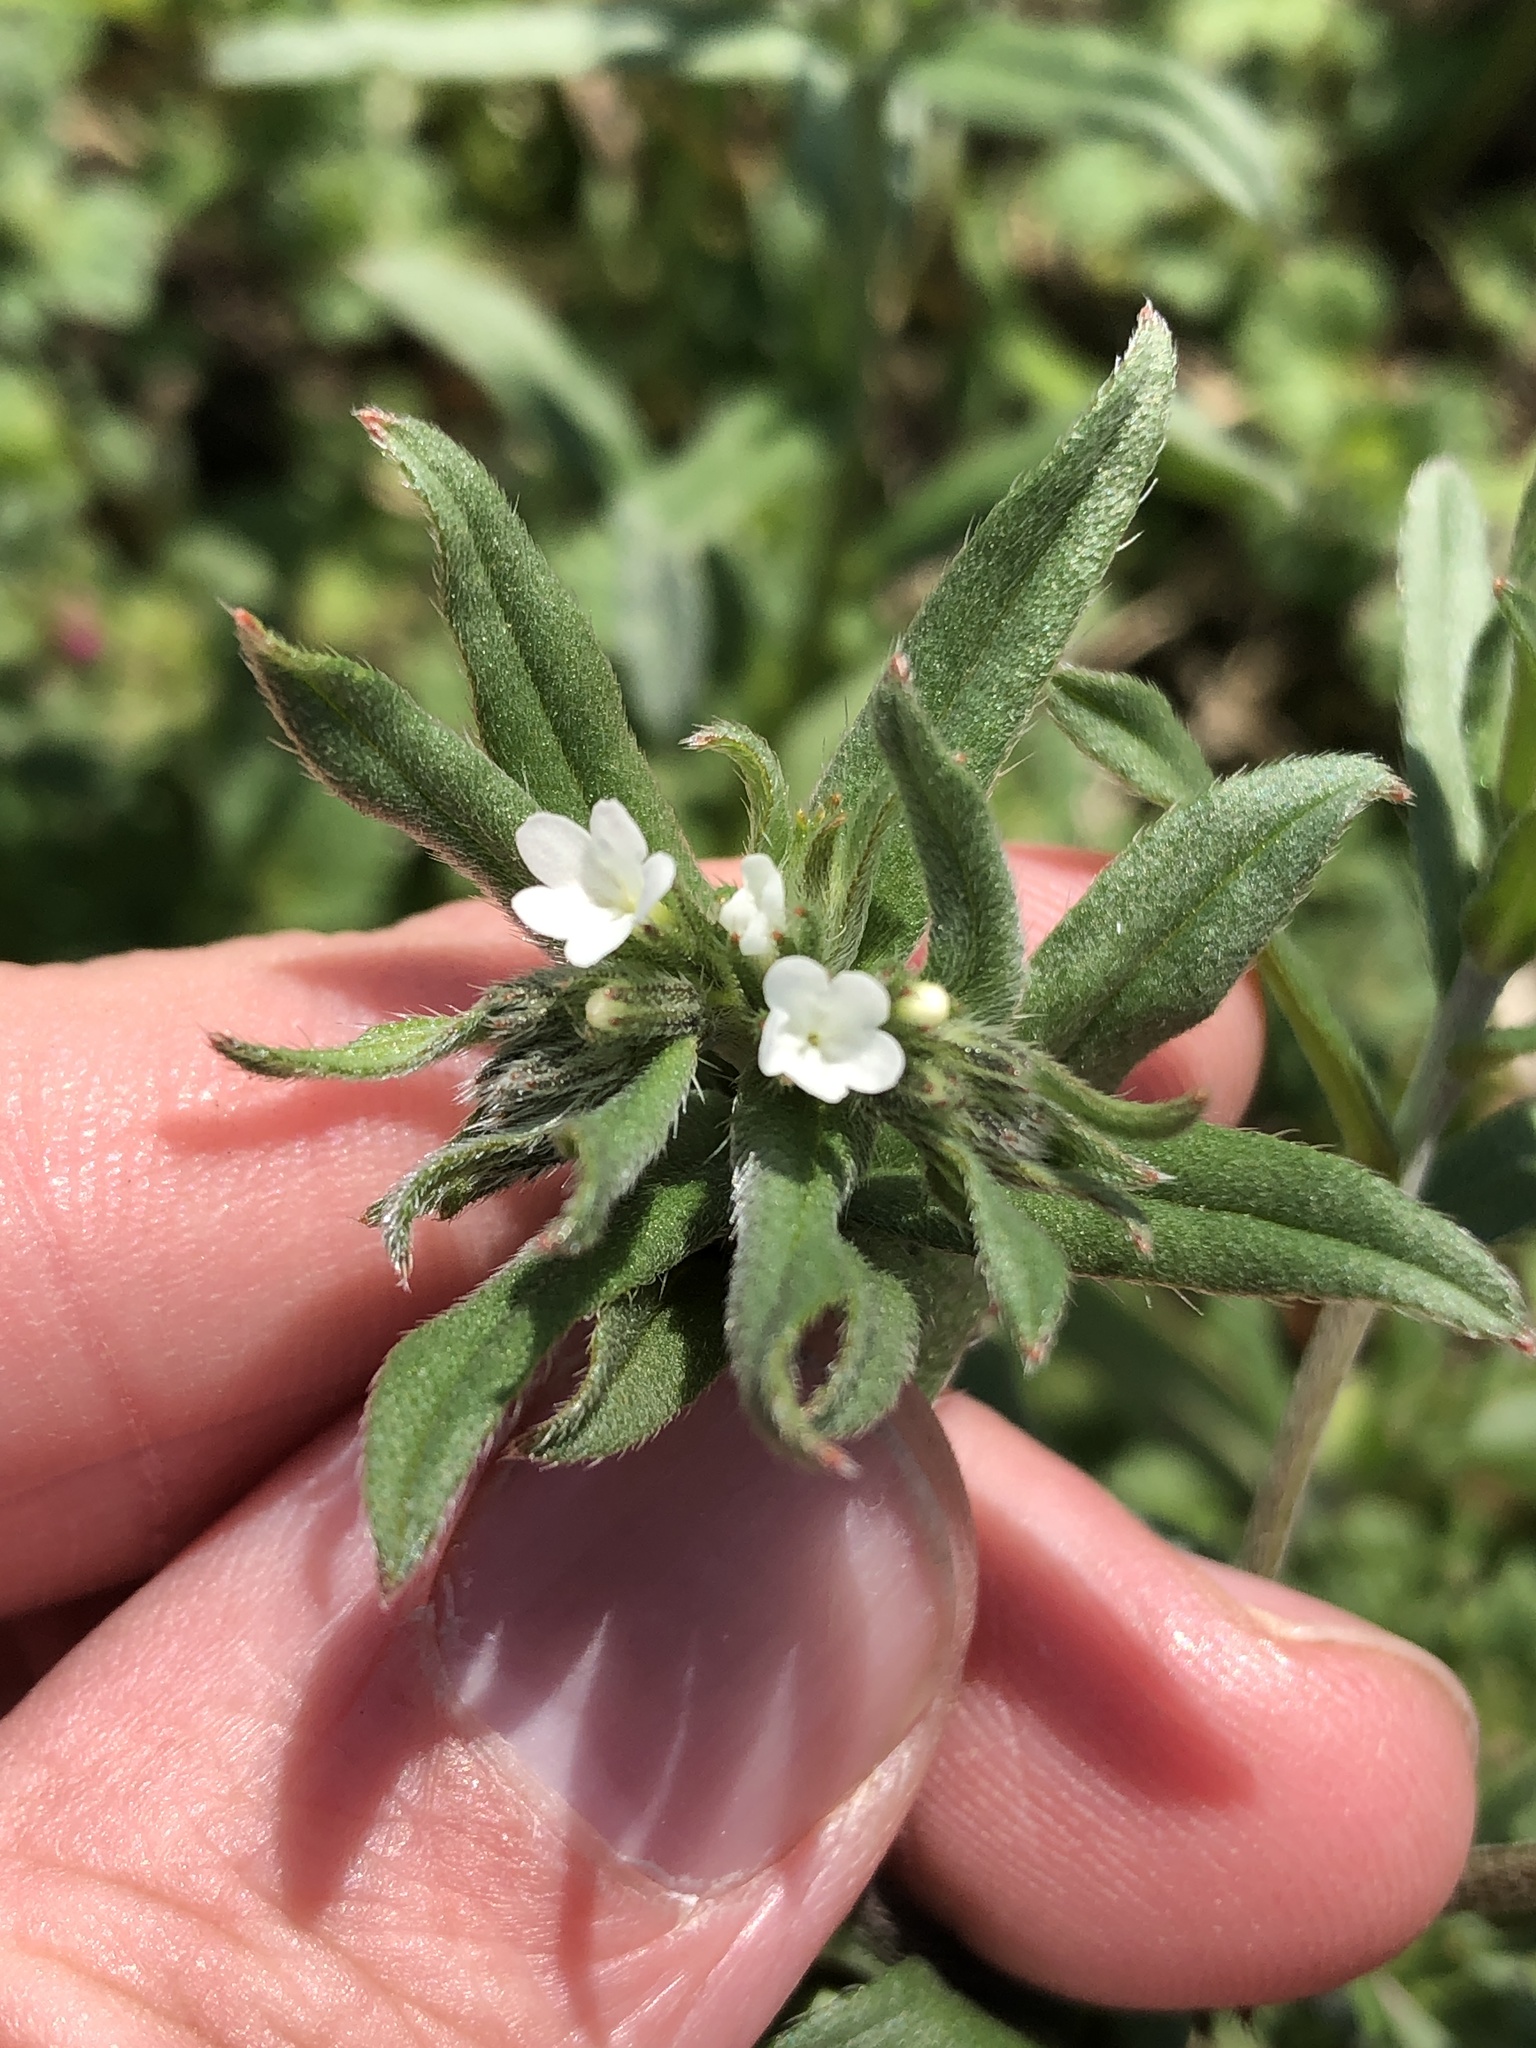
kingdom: Plantae
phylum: Tracheophyta
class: Magnoliopsida
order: Boraginales
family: Boraginaceae
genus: Buglossoides
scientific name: Buglossoides arvensis
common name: Corn gromwell
